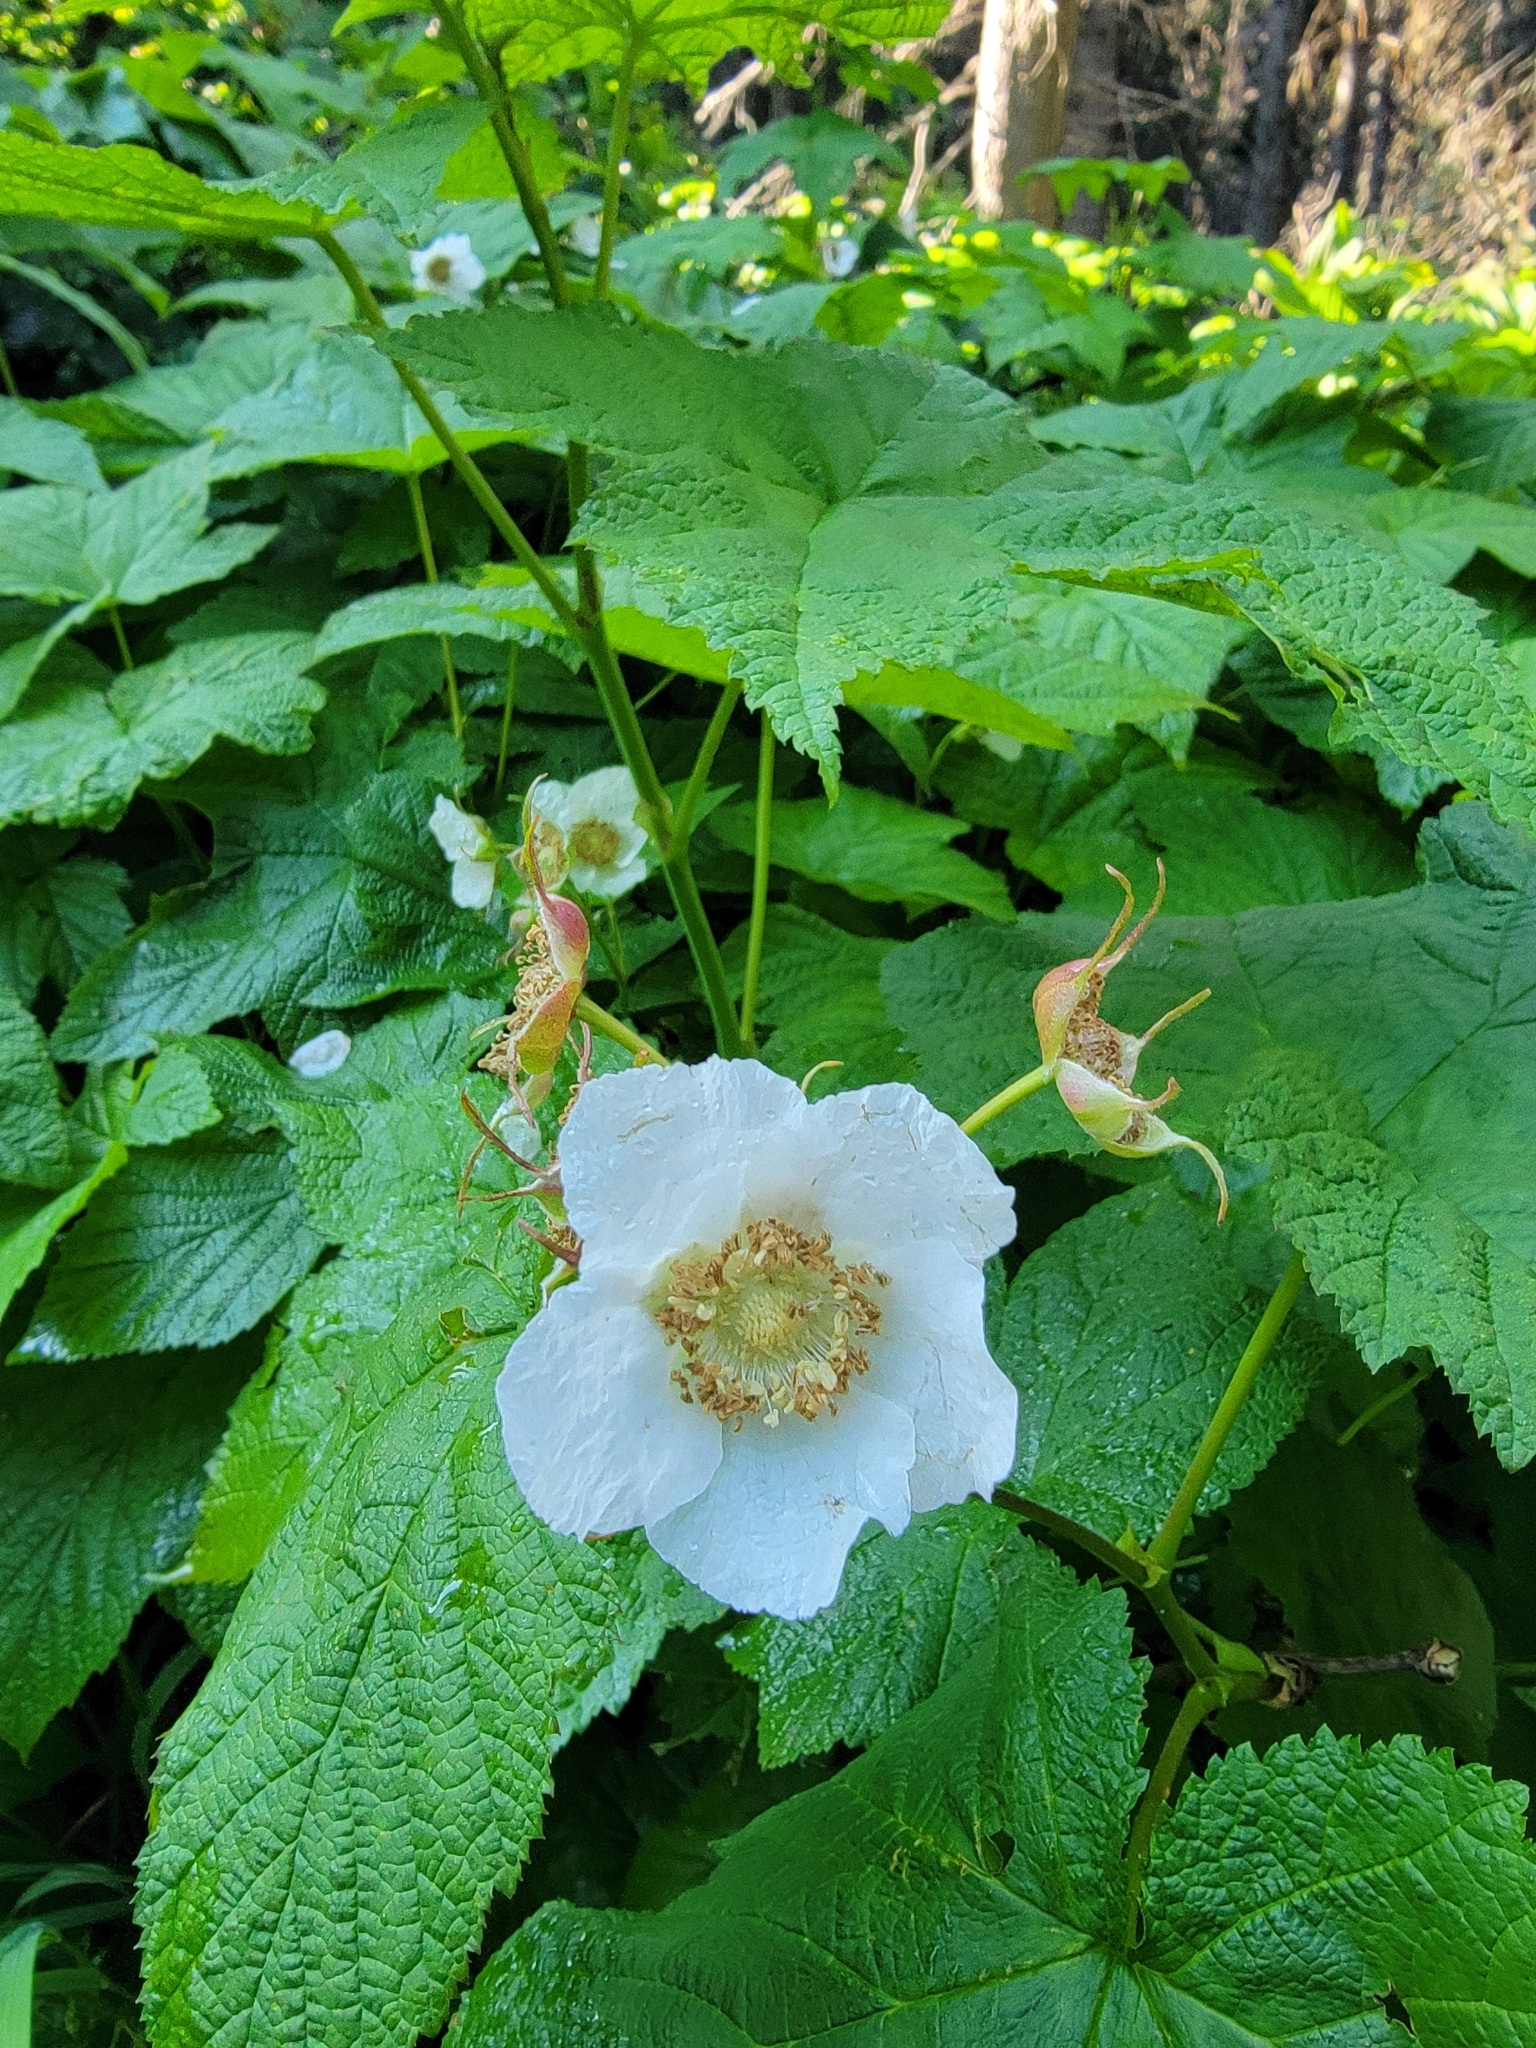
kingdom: Plantae
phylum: Tracheophyta
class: Magnoliopsida
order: Rosales
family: Rosaceae
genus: Rubus
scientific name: Rubus parviflorus
